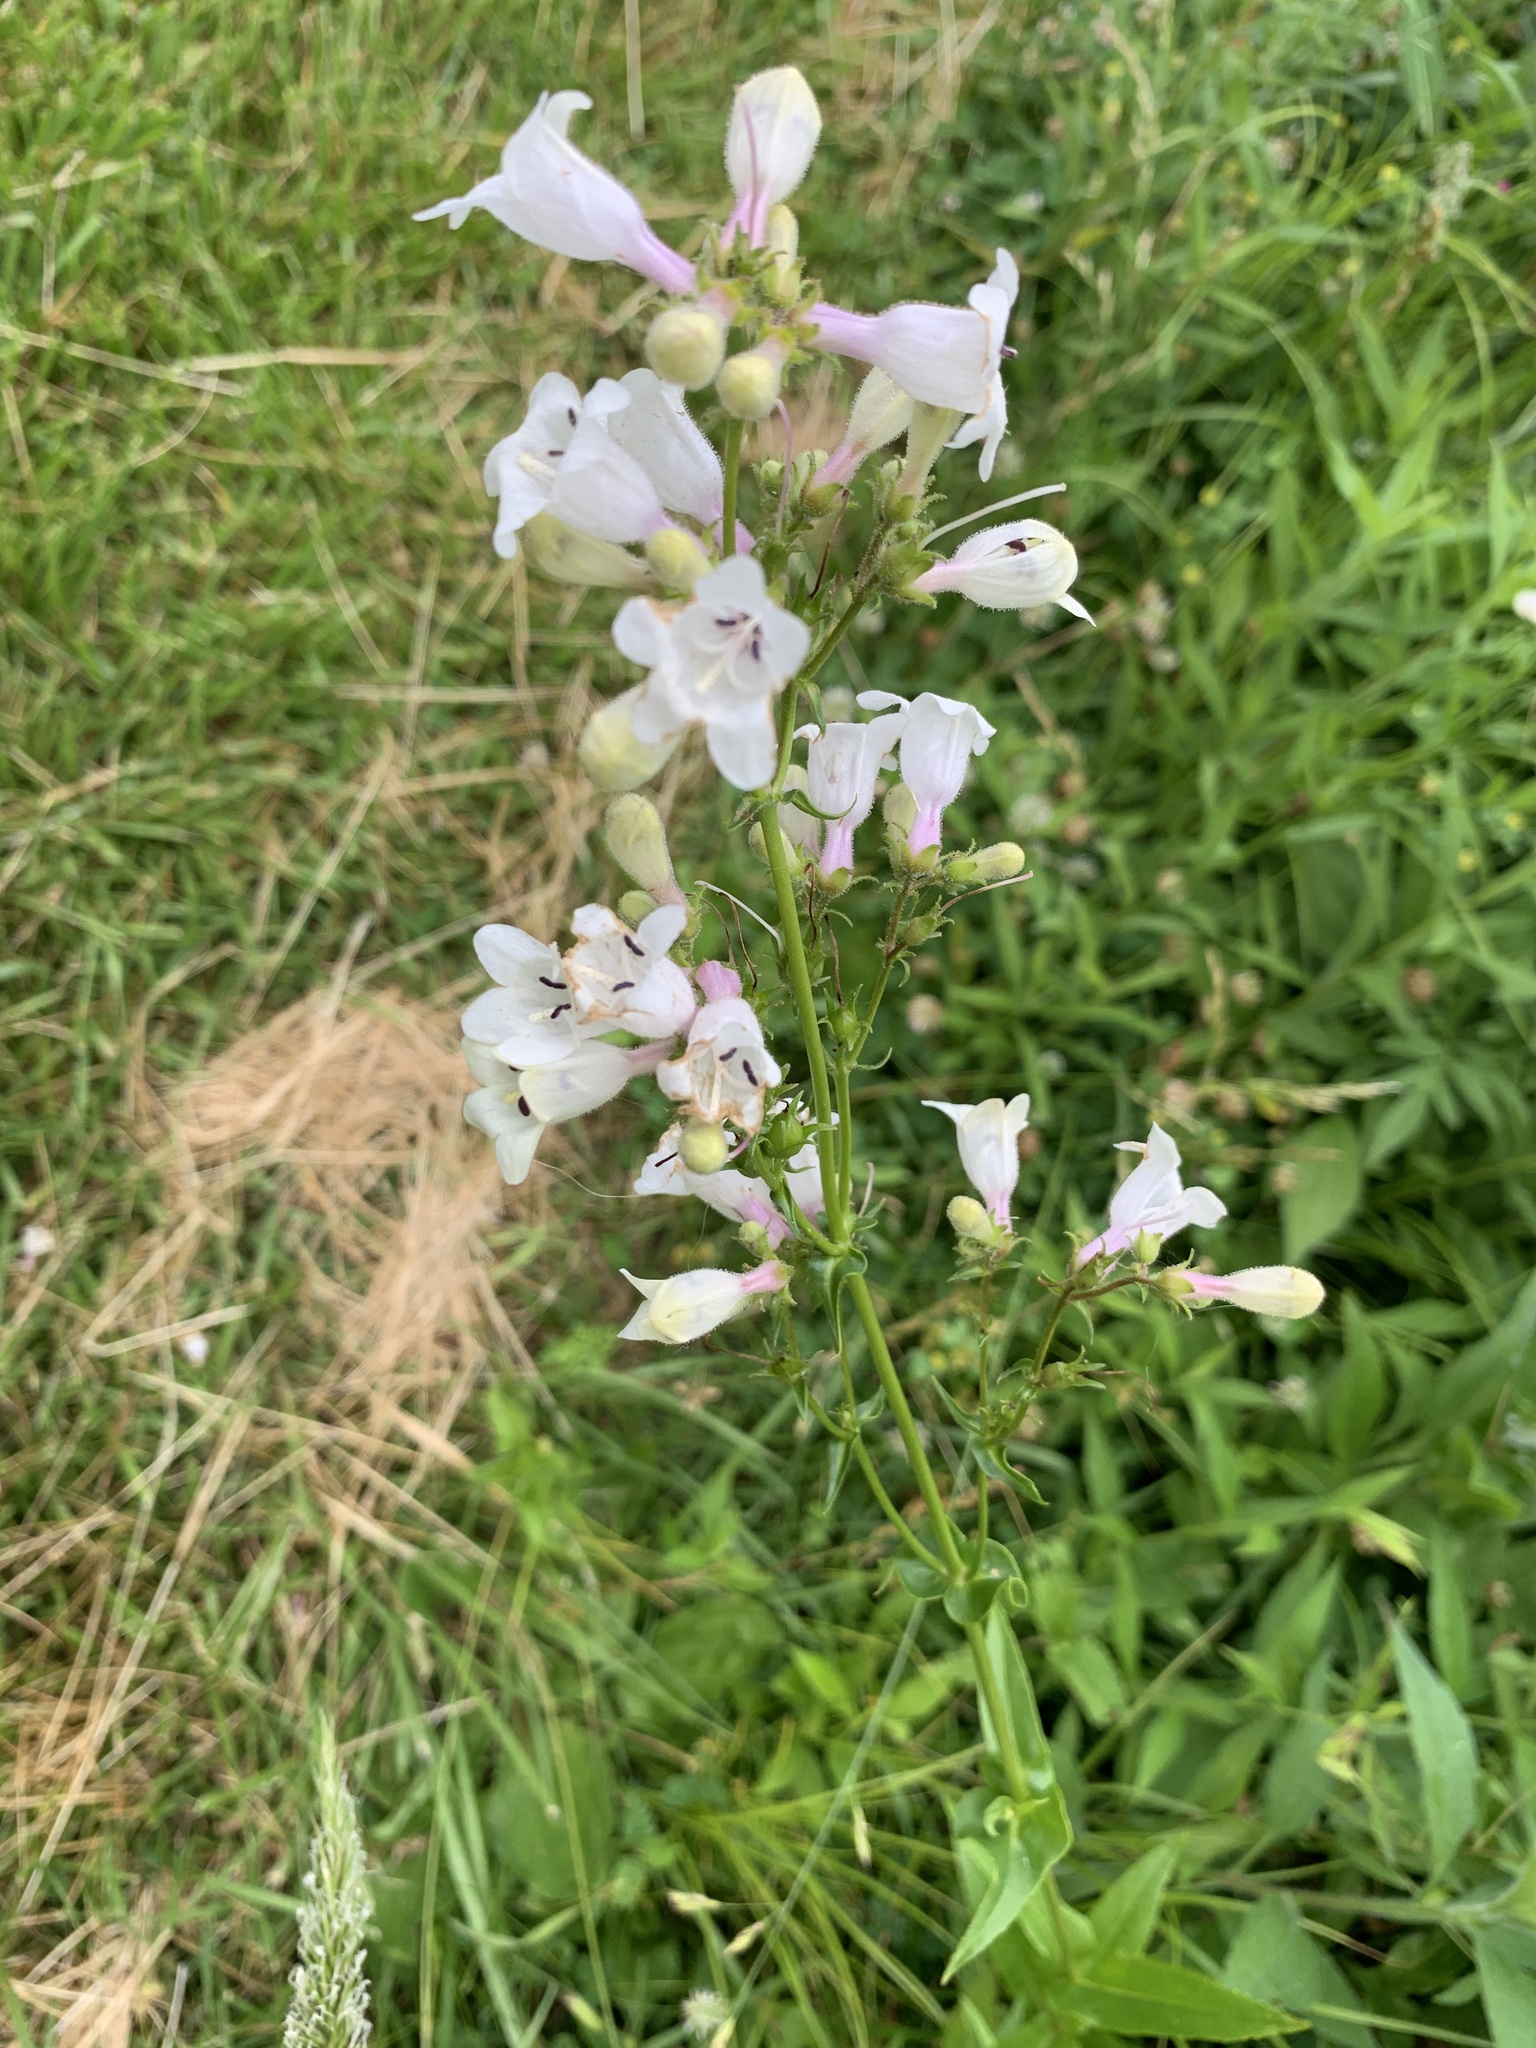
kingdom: Plantae
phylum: Tracheophyta
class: Magnoliopsida
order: Lamiales
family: Plantaginaceae
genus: Penstemon
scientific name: Penstemon digitalis
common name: Foxglove beardtongue
